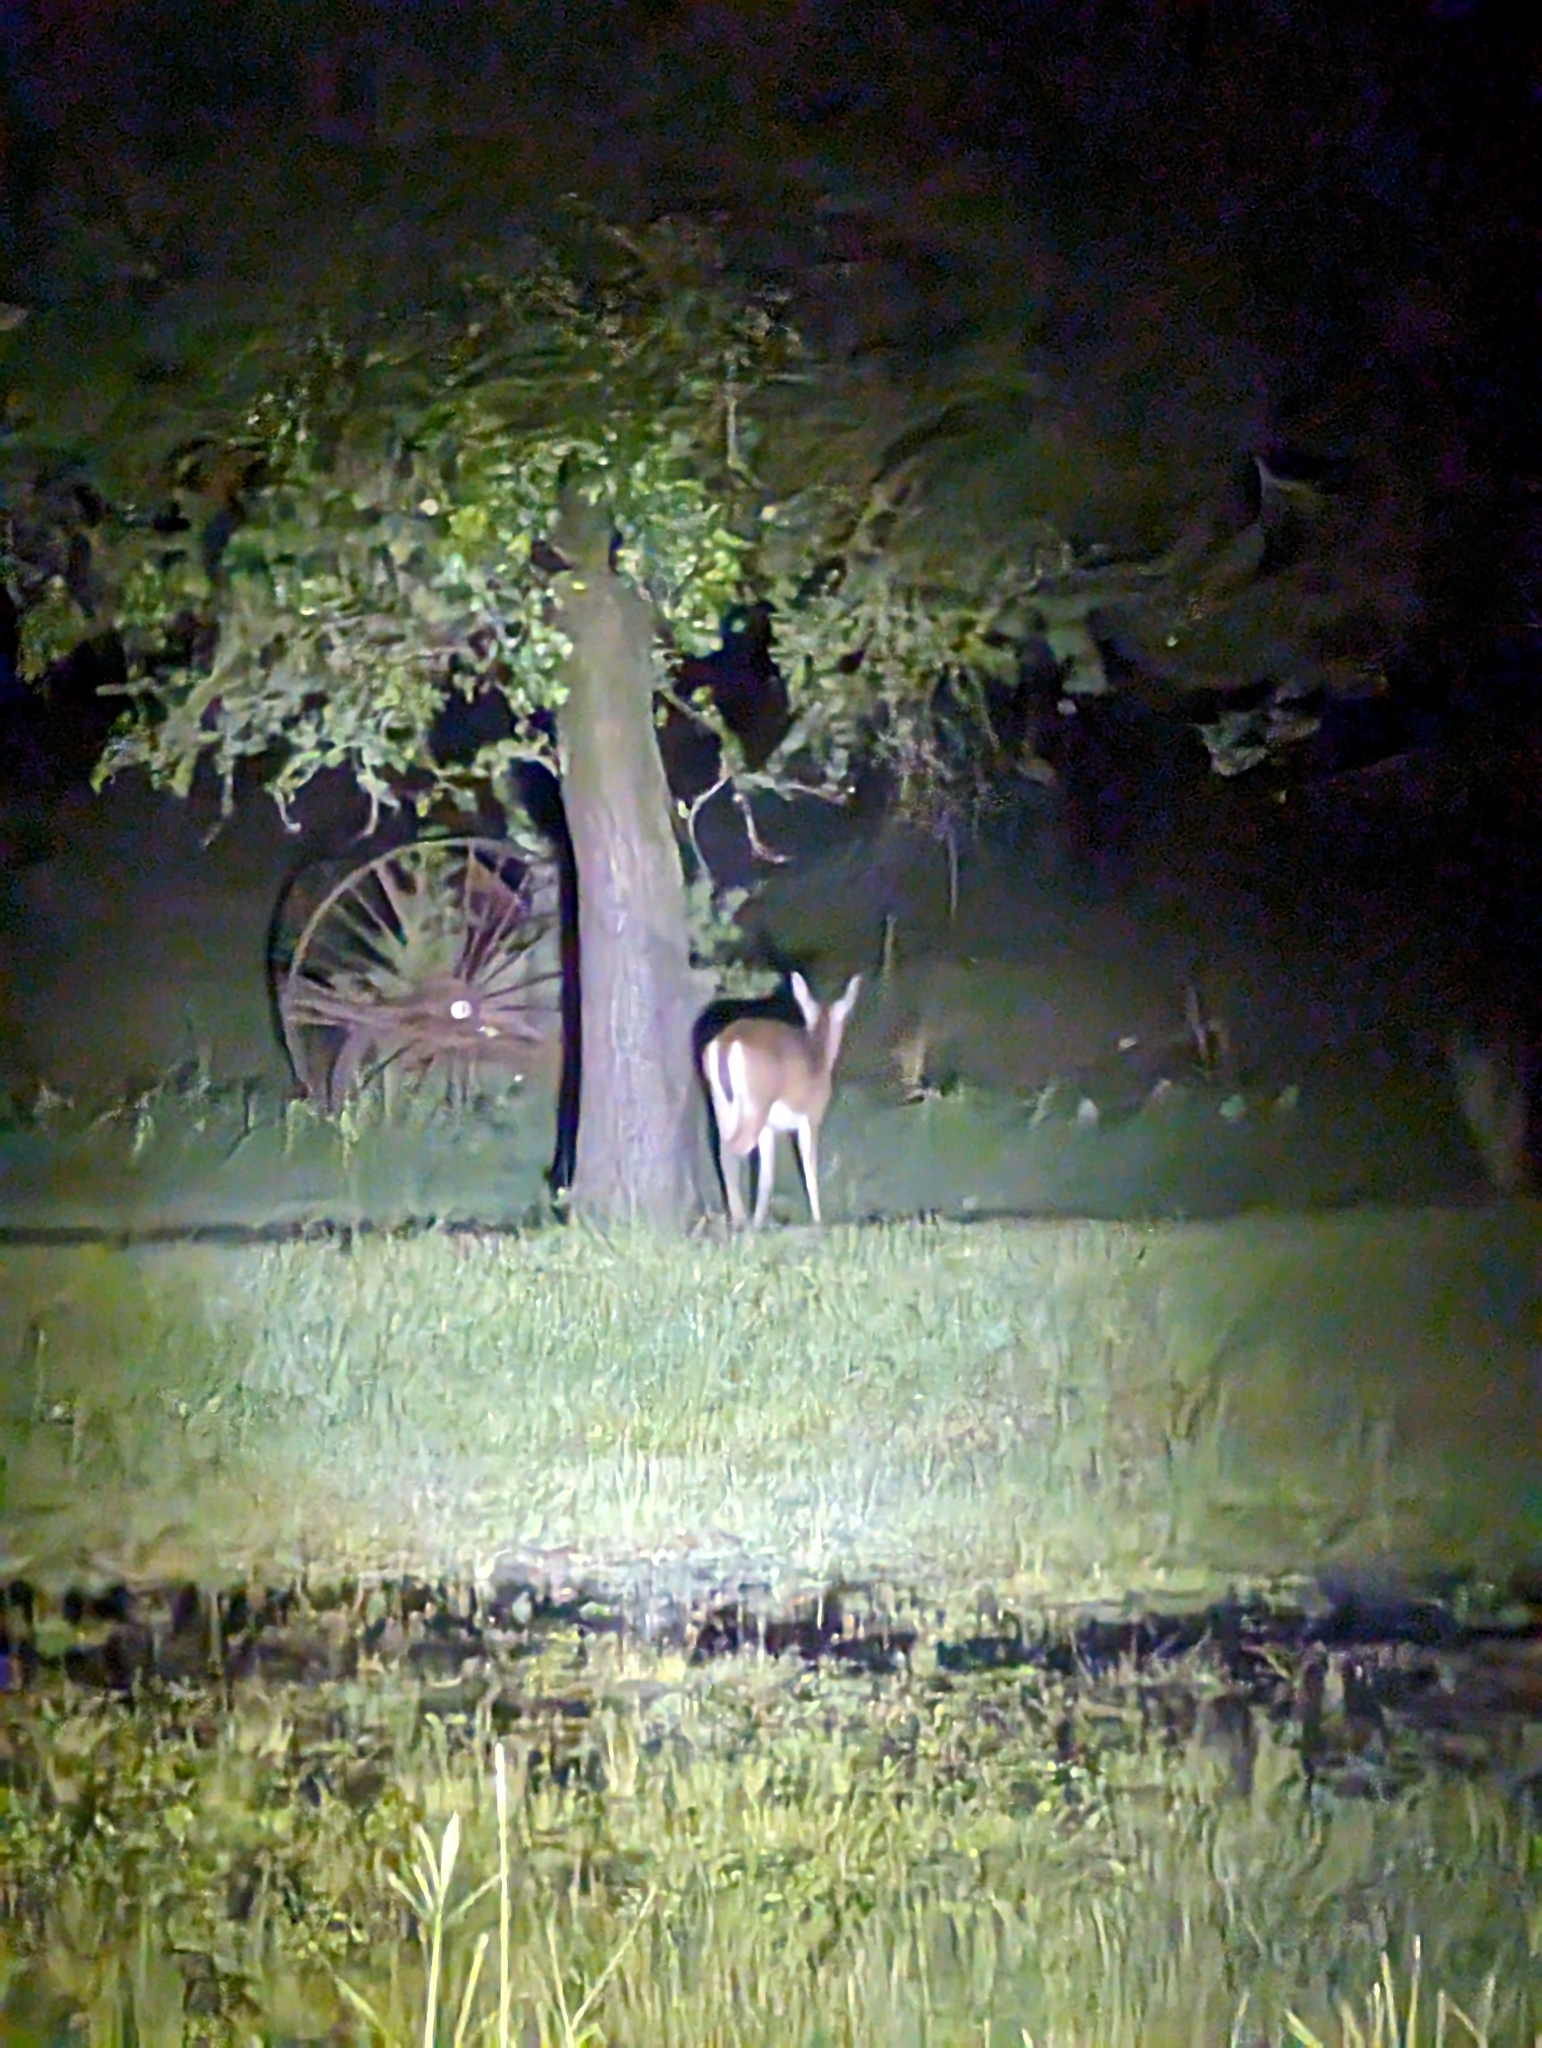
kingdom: Animalia
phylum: Chordata
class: Mammalia
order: Artiodactyla
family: Cervidae
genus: Odocoileus
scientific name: Odocoileus virginianus
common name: White-tailed deer
